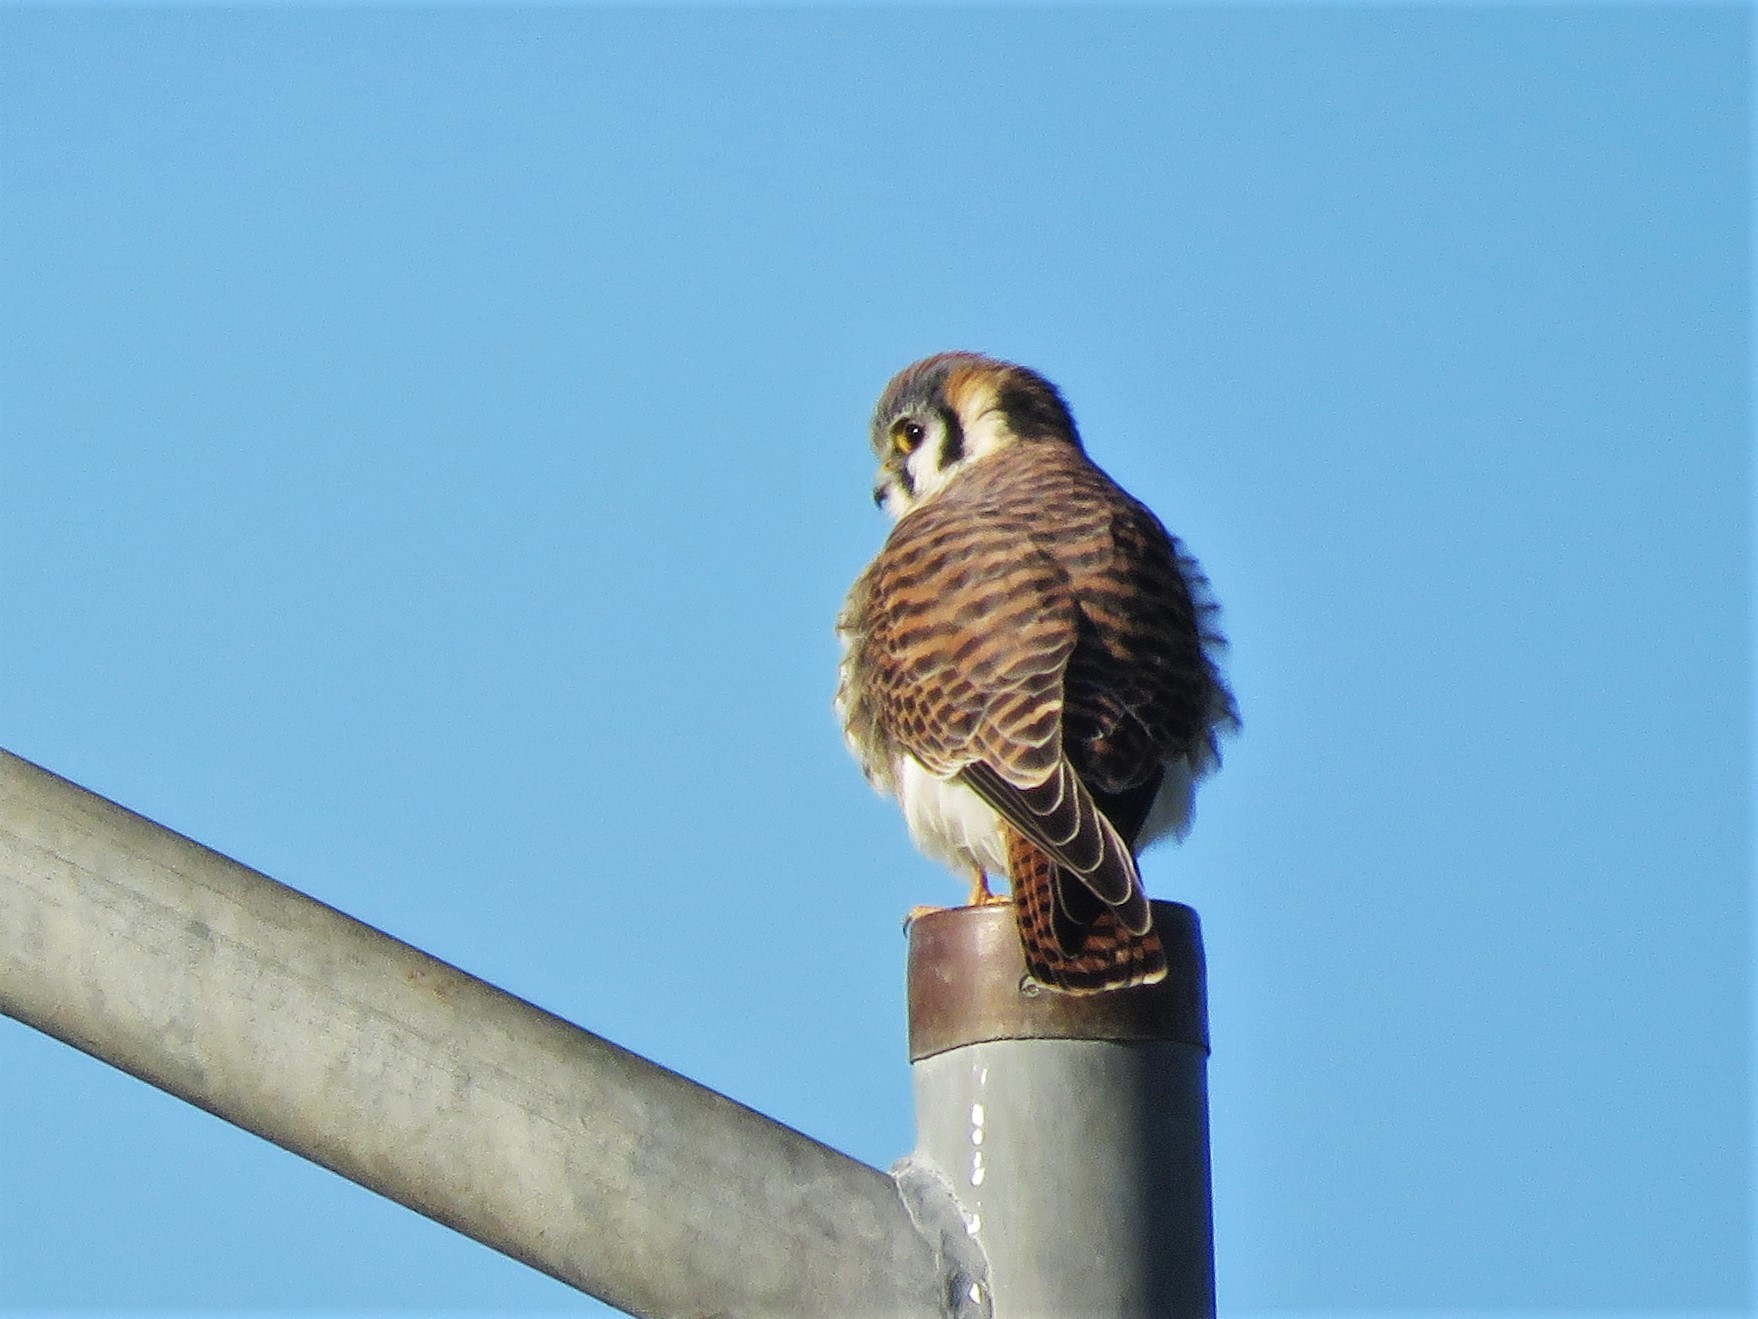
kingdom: Animalia
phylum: Chordata
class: Aves
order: Falconiformes
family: Falconidae
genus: Falco
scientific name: Falco sparverius
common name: American kestrel
